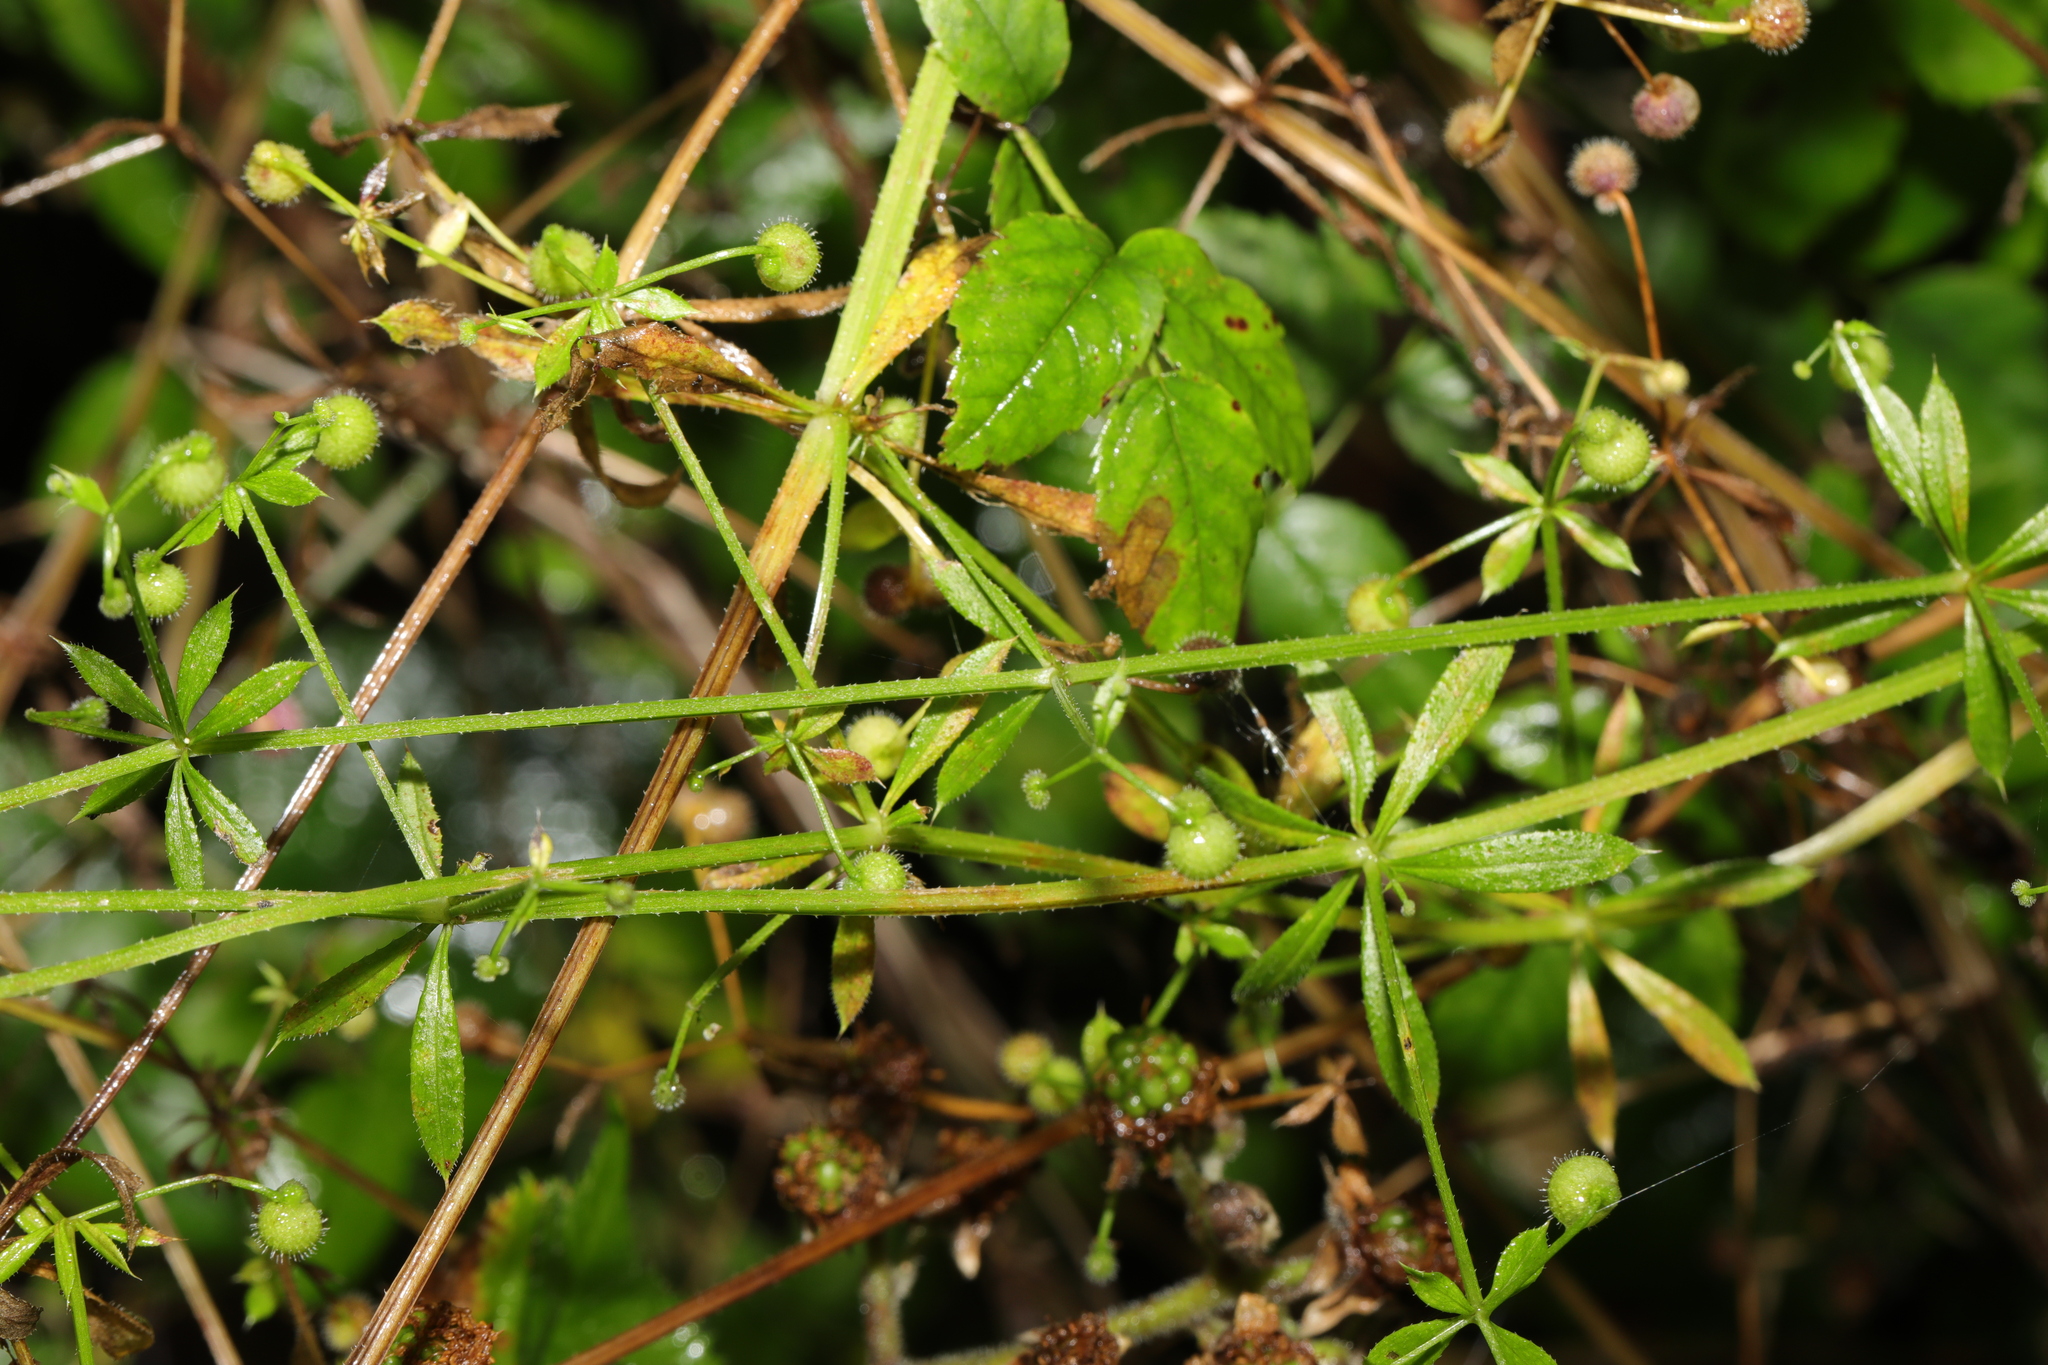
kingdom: Plantae
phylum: Tracheophyta
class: Magnoliopsida
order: Gentianales
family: Rubiaceae
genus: Galium
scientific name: Galium aparine
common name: Cleavers
